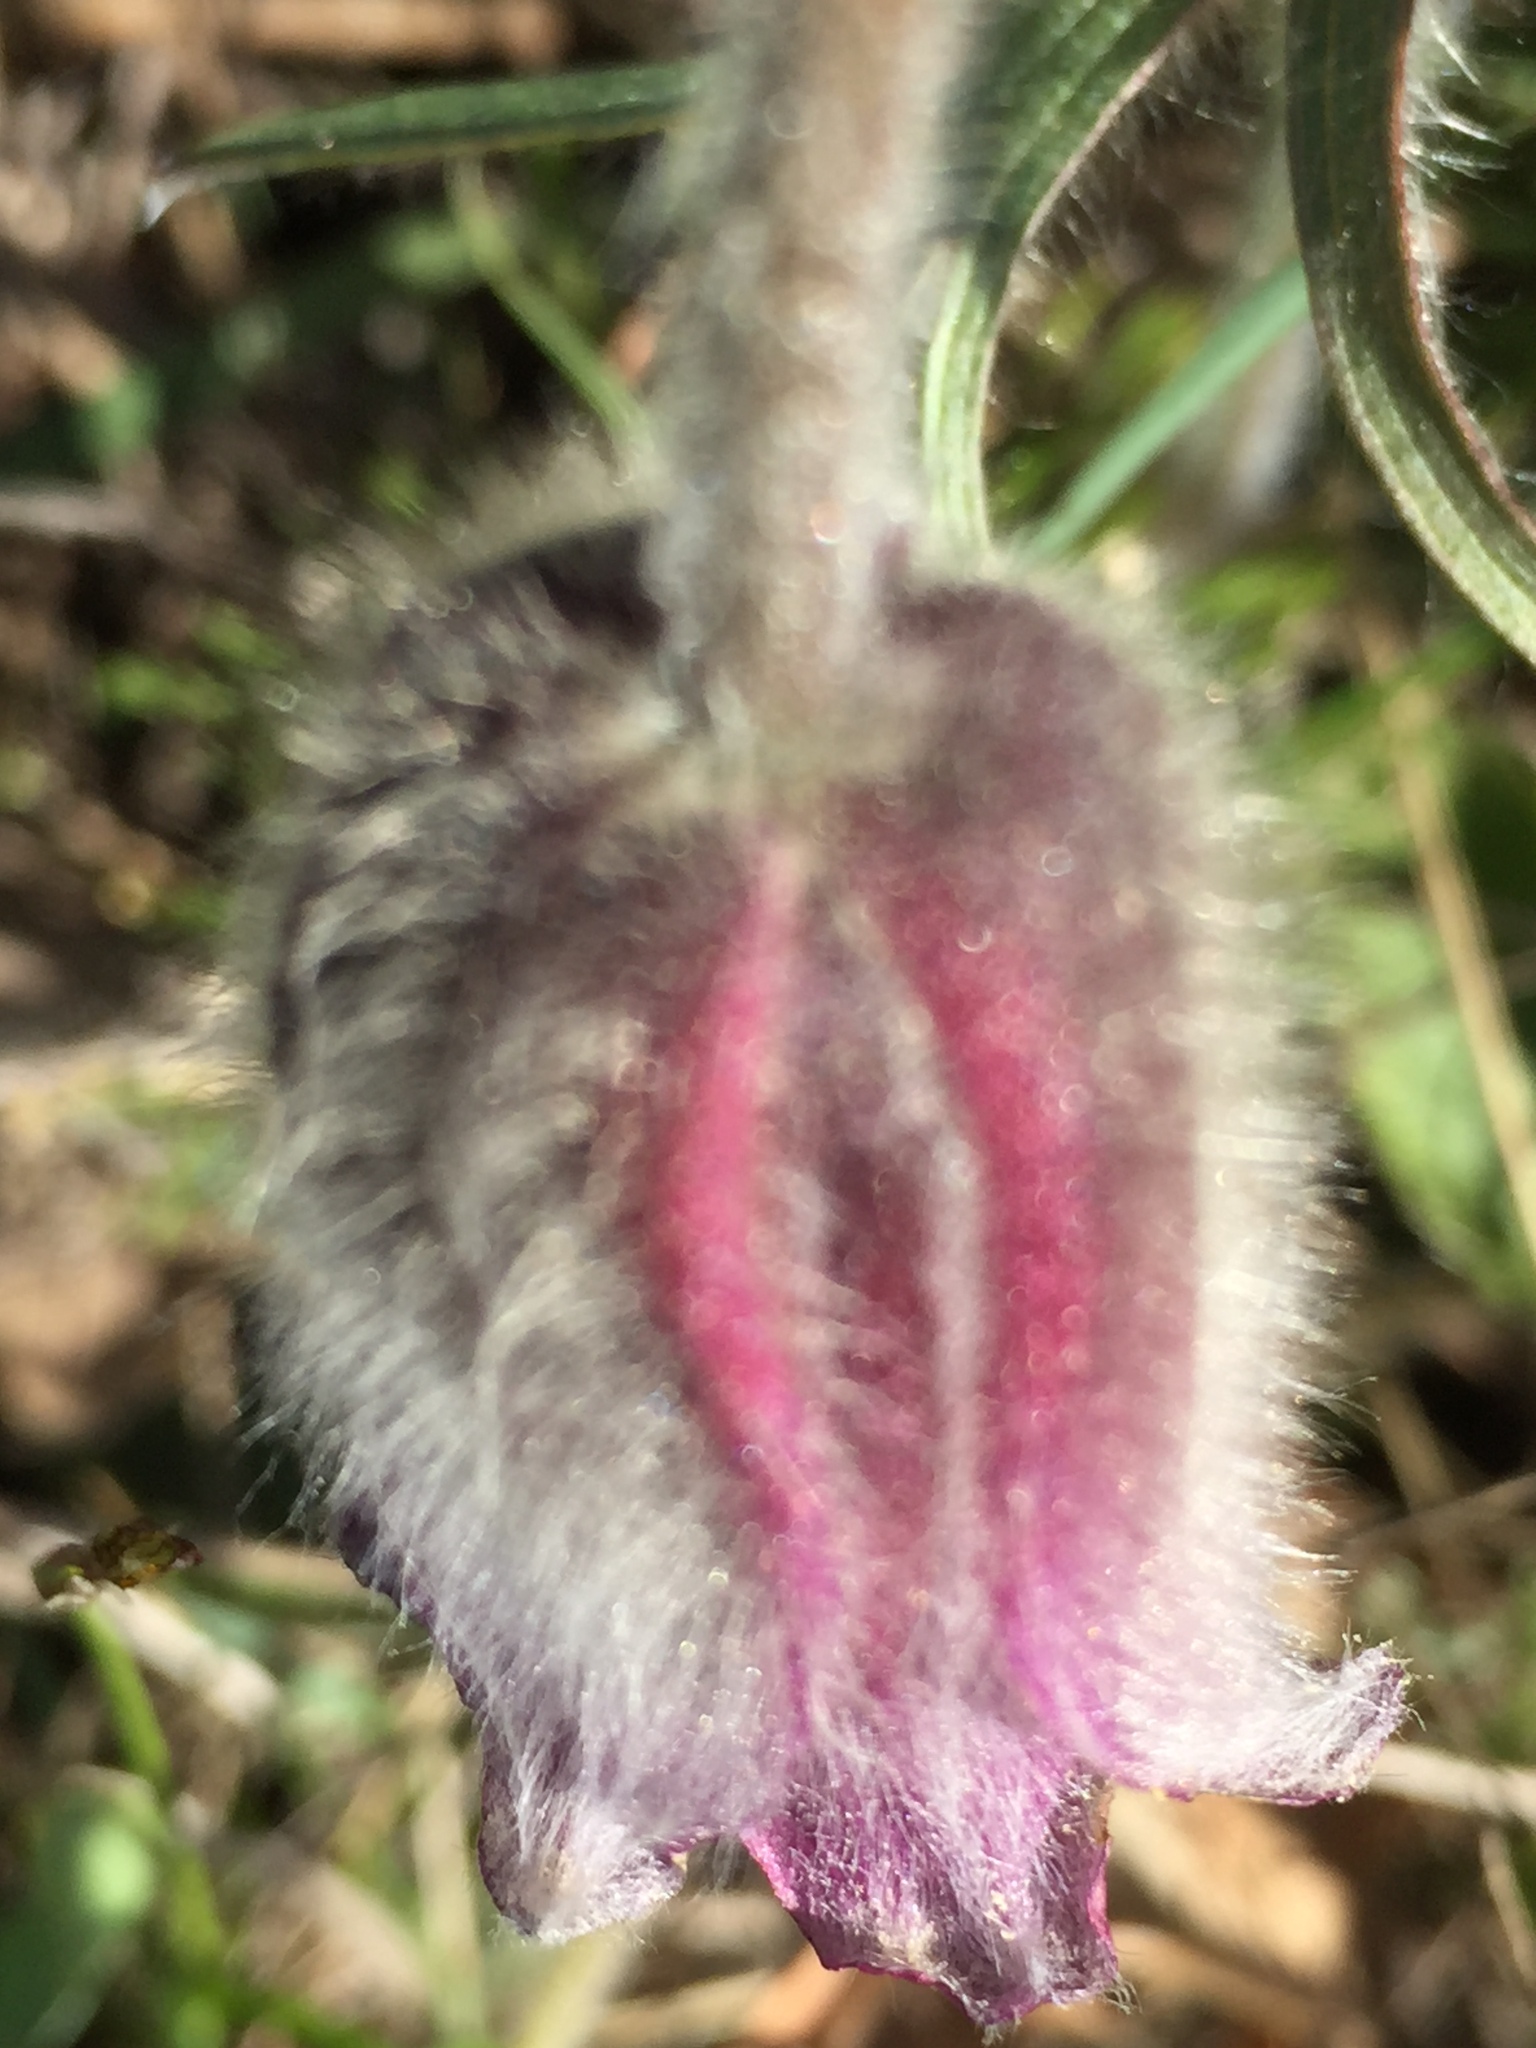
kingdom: Plantae
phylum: Tracheophyta
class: Magnoliopsida
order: Ranunculales
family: Ranunculaceae
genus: Pulsatilla
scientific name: Pulsatilla pratensis
